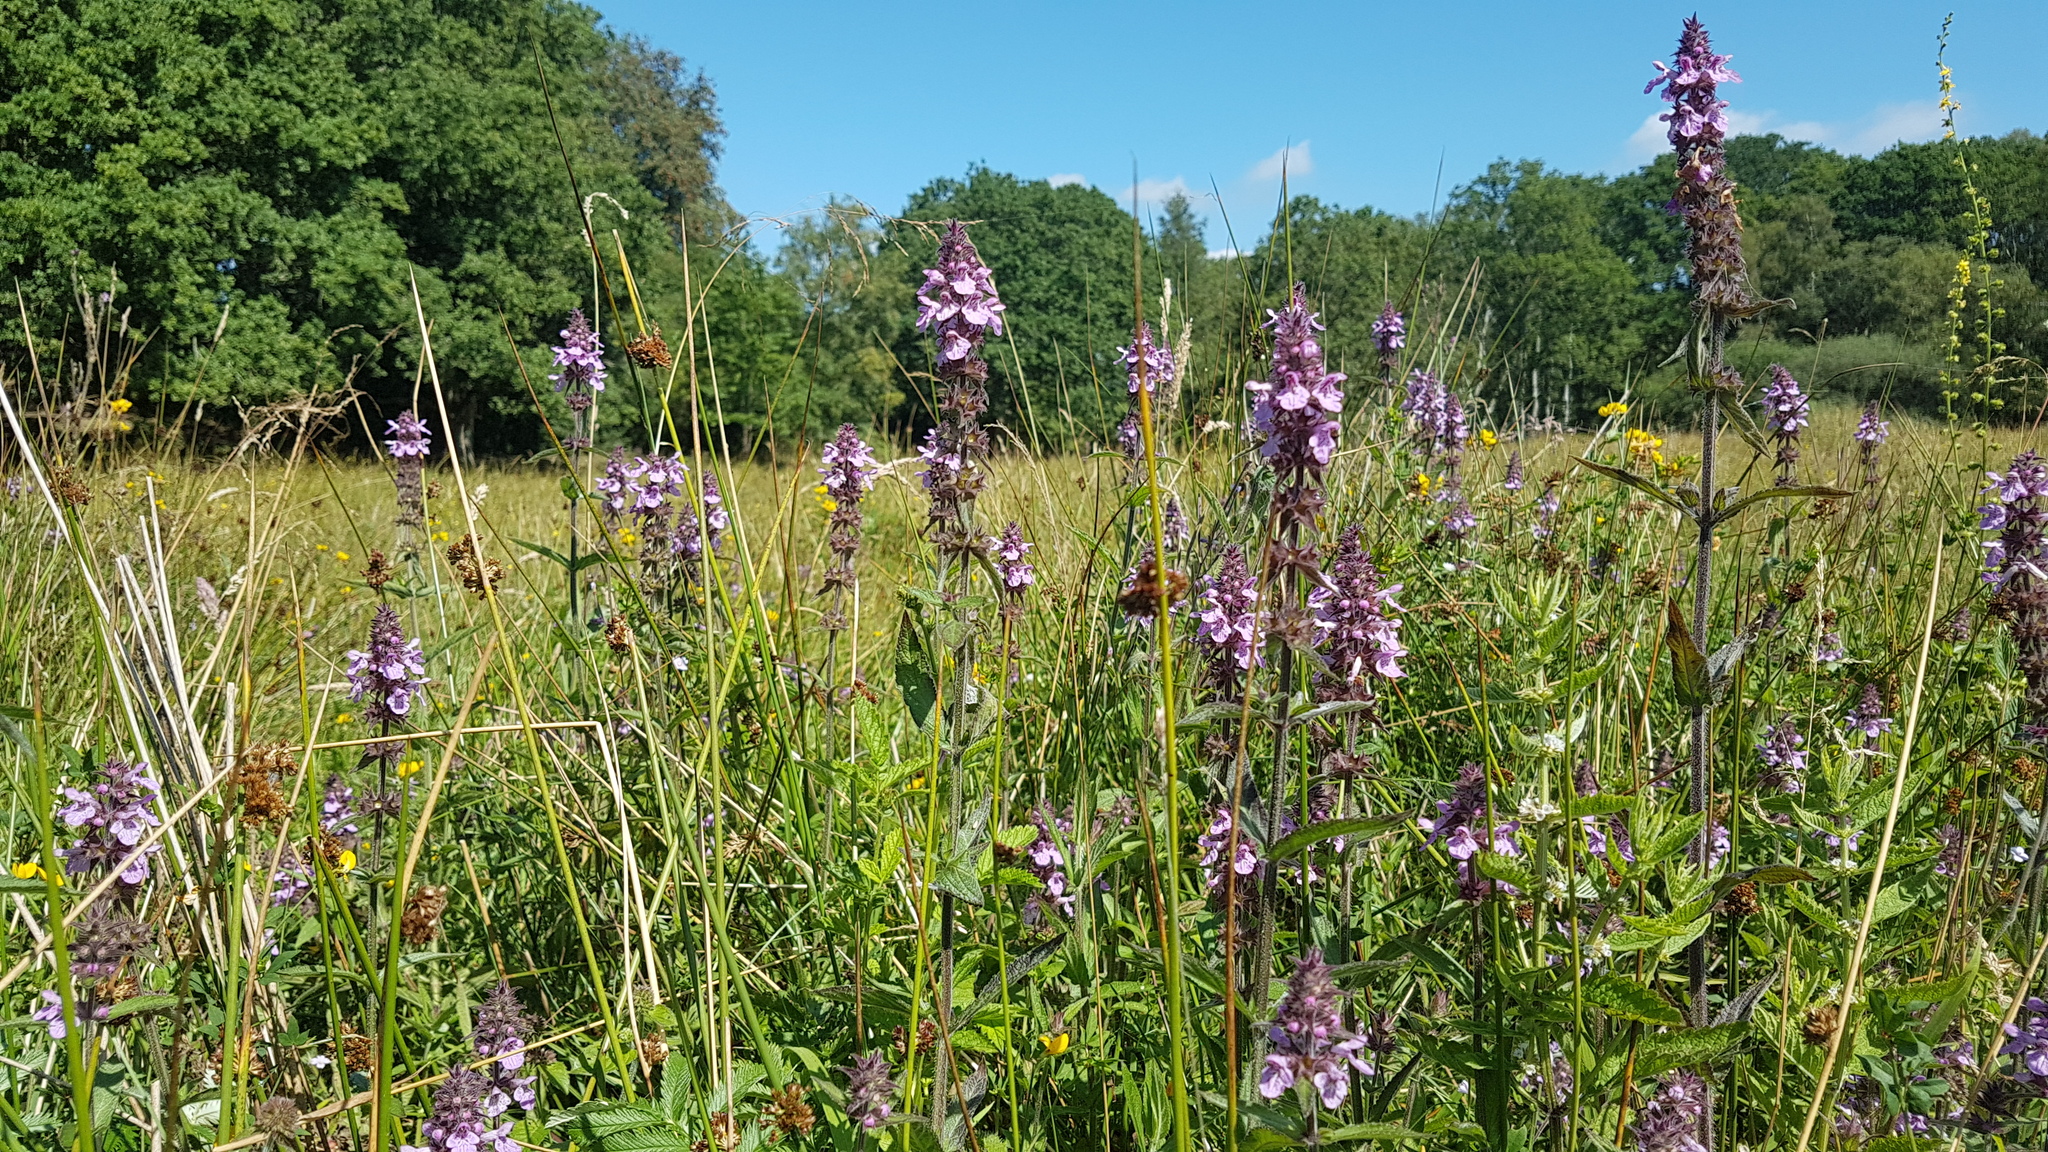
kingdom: Plantae
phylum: Tracheophyta
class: Magnoliopsida
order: Lamiales
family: Lamiaceae
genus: Stachys
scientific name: Stachys palustris
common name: Marsh woundwort
